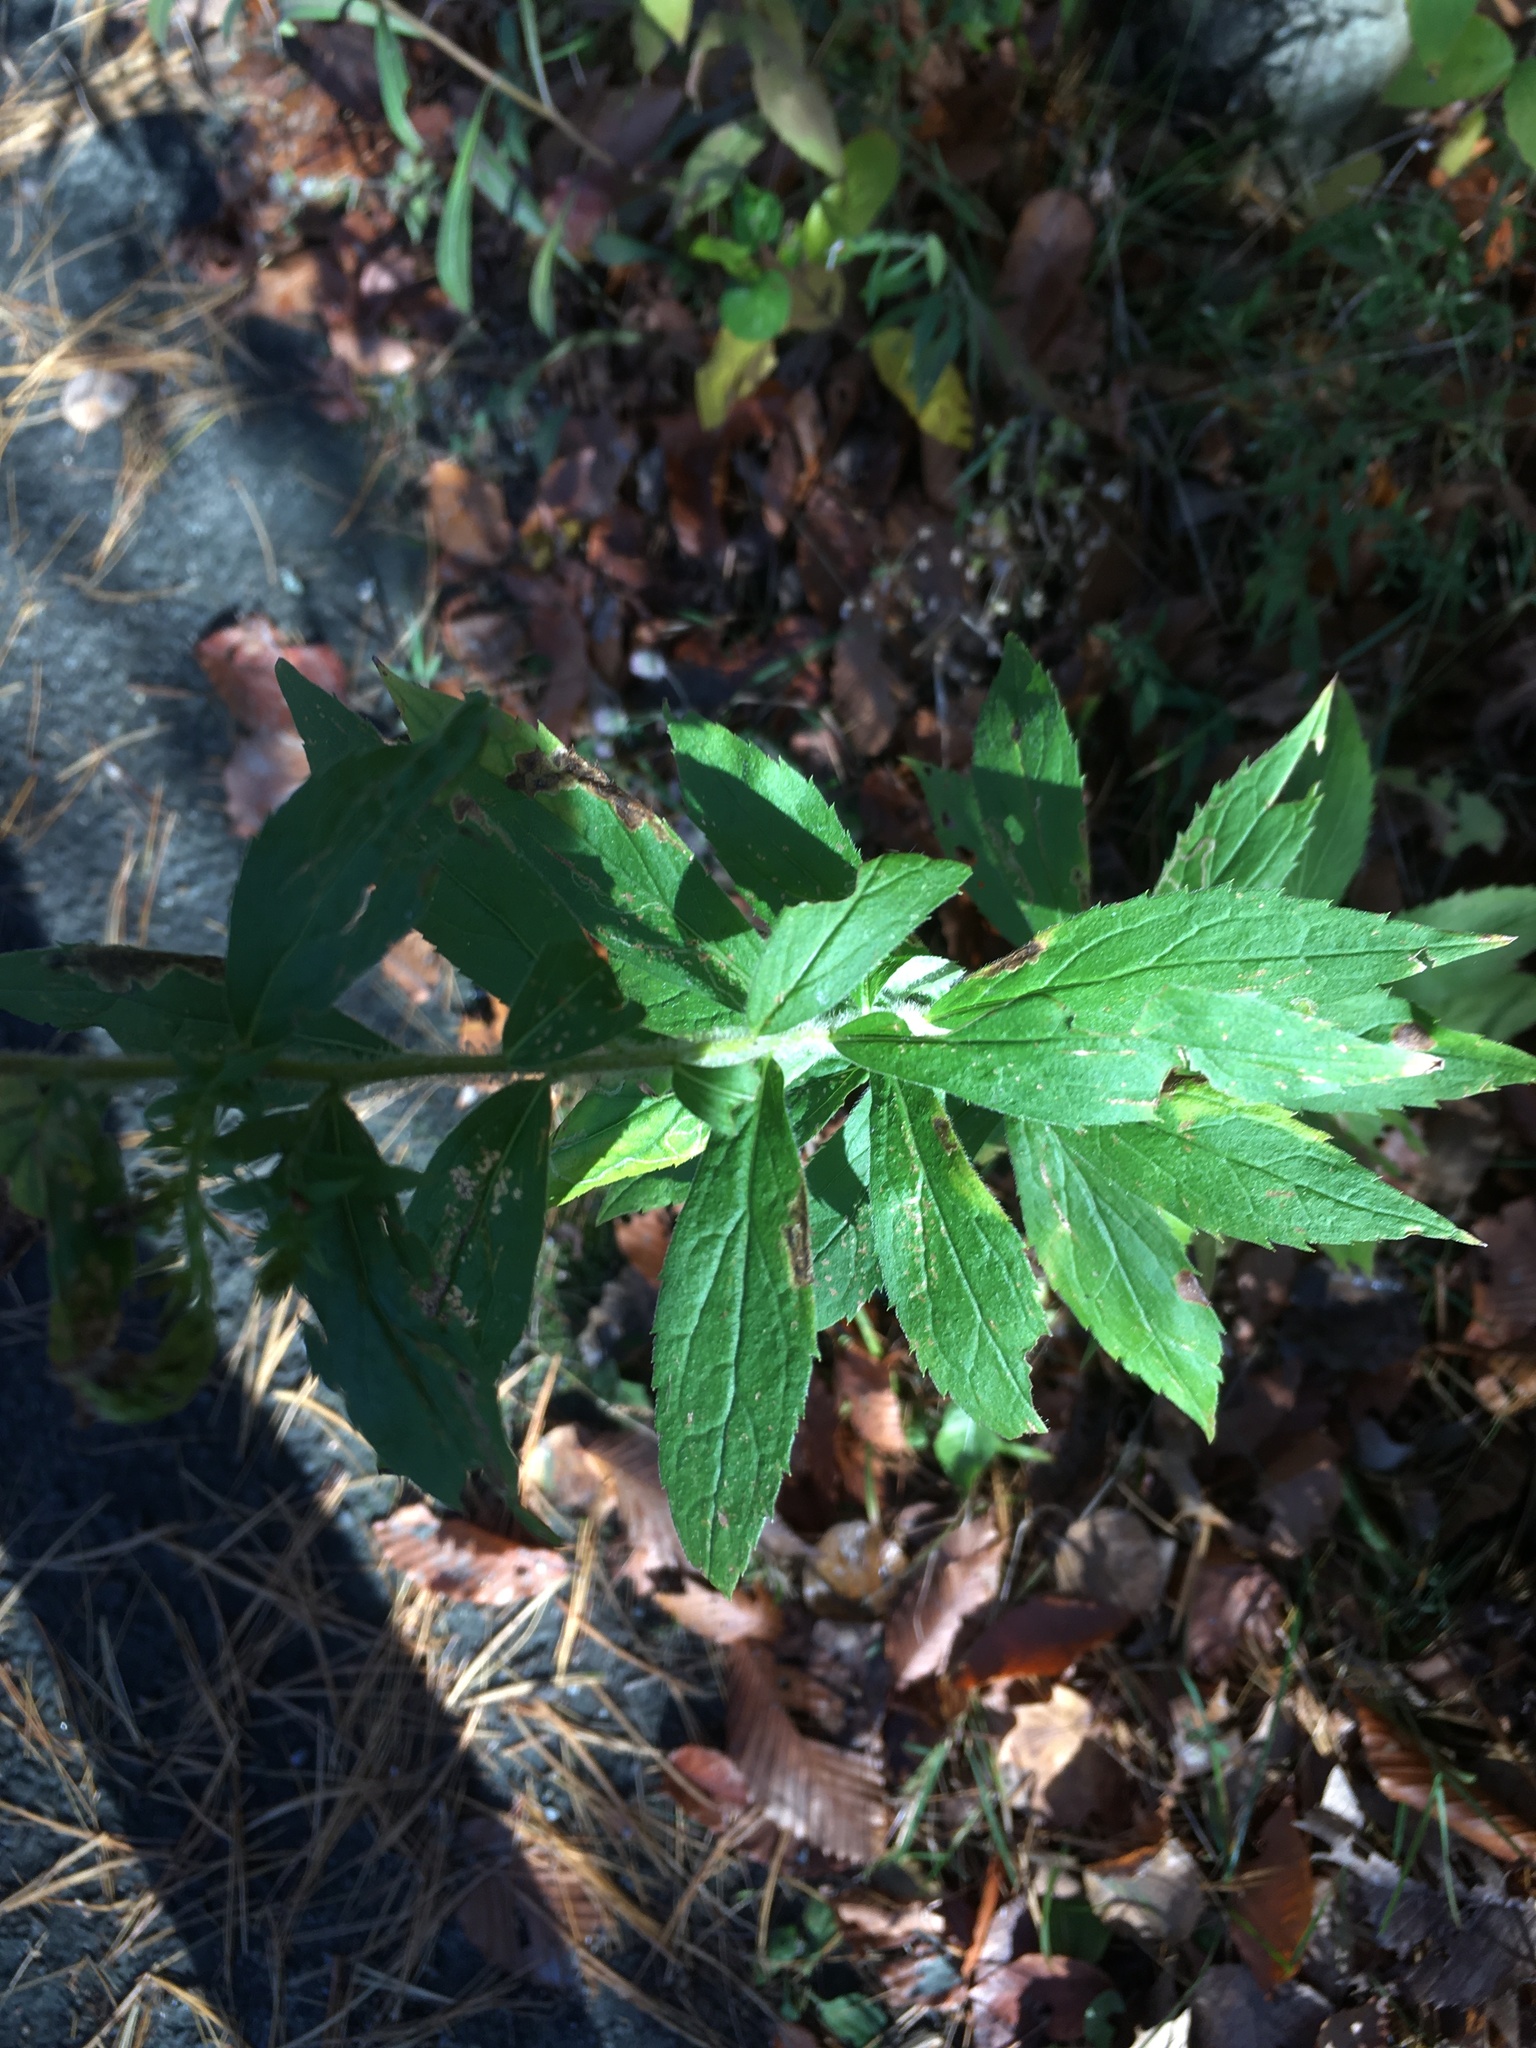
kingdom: Plantae
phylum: Tracheophyta
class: Magnoliopsida
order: Asterales
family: Asteraceae
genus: Solidago
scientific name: Solidago rugosa
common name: Rough-stemmed goldenrod
